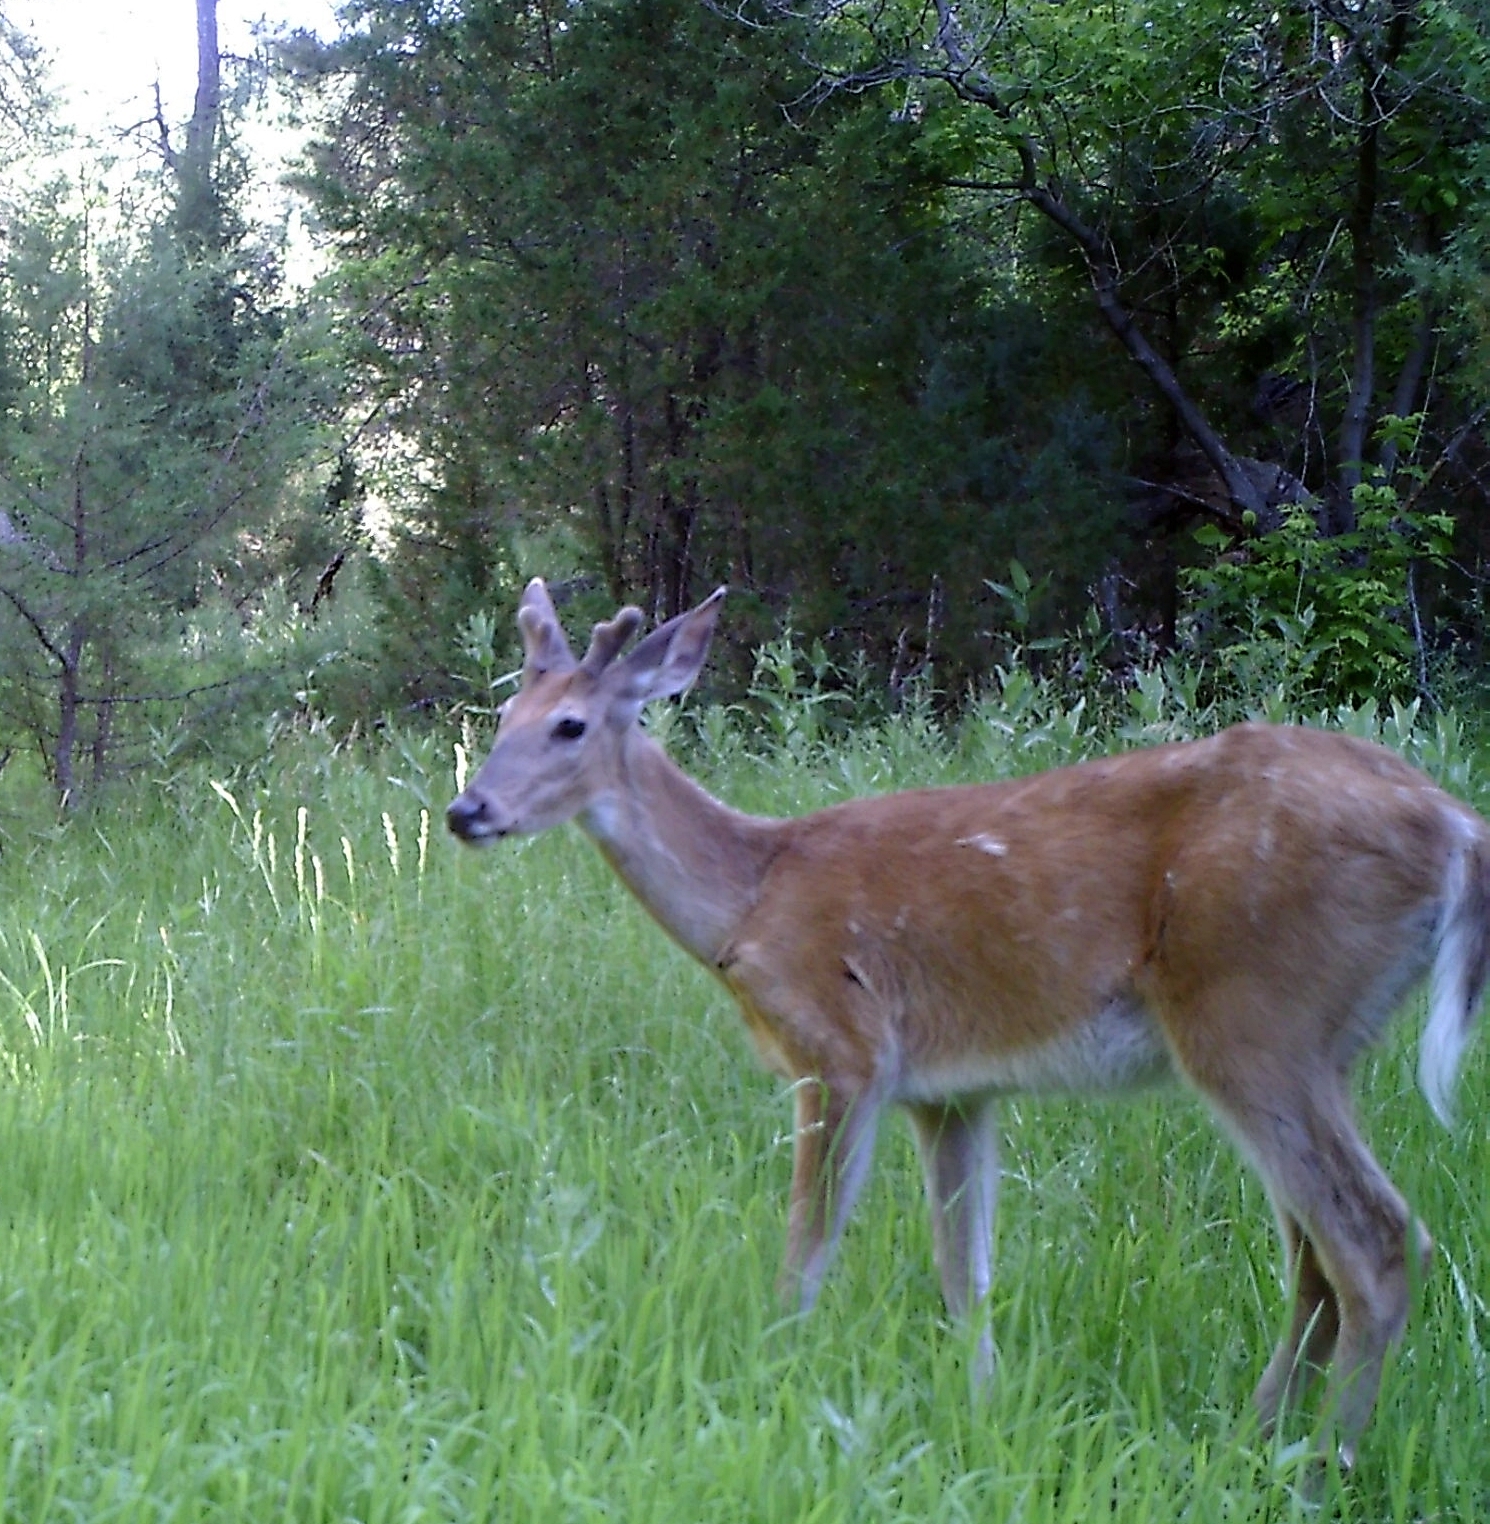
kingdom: Animalia
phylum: Chordata
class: Mammalia
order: Artiodactyla
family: Cervidae
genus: Odocoileus
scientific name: Odocoileus virginianus
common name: White-tailed deer
